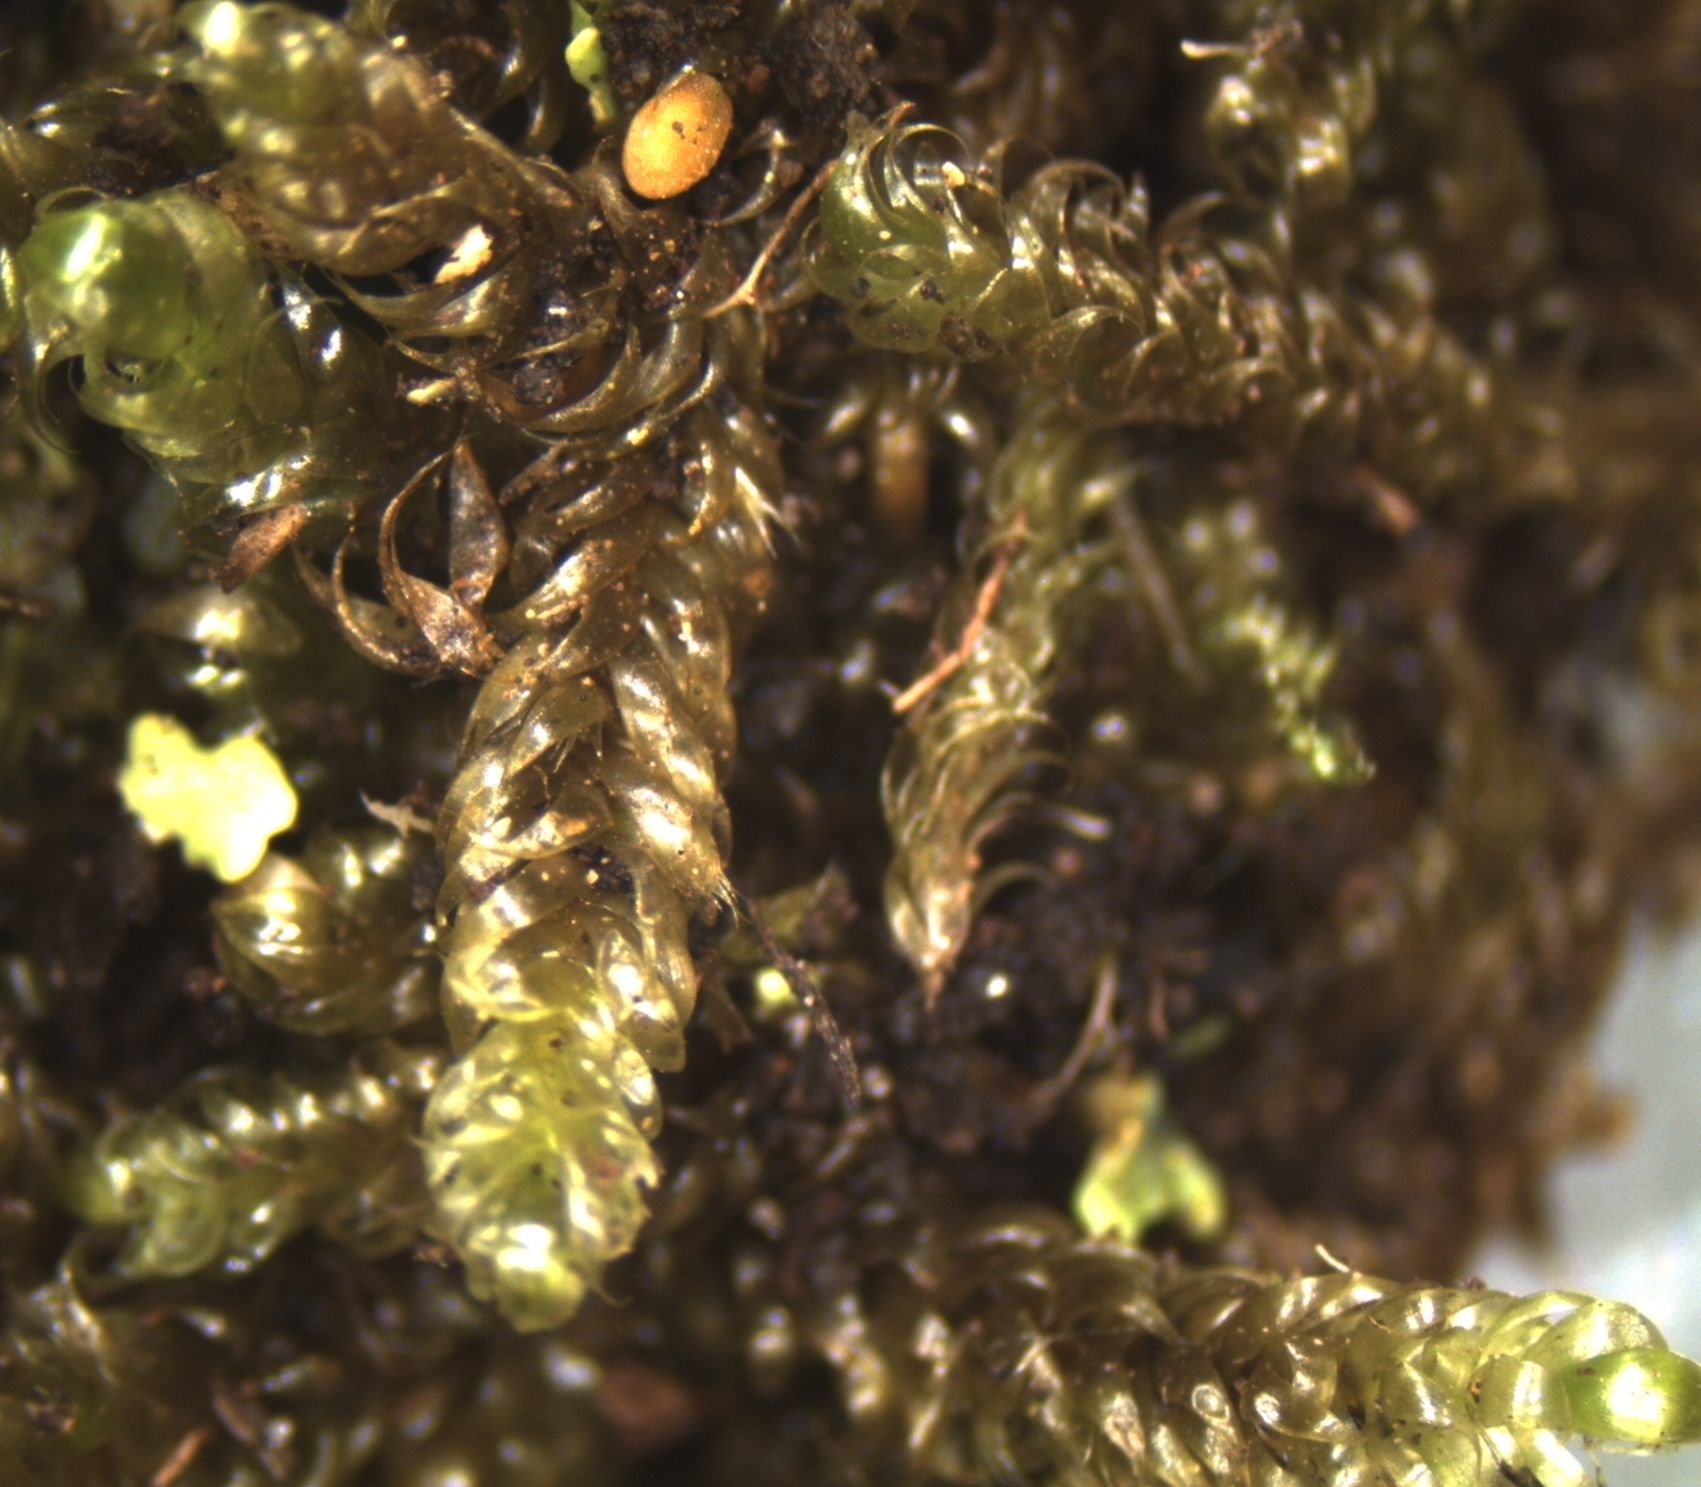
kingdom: Plantae
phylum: Bryophyta
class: Bryopsida
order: Hypnales
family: Hypnaceae
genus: Hypnum
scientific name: Hypnum cupressiforme
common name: Cypress-leaved plait-moss
